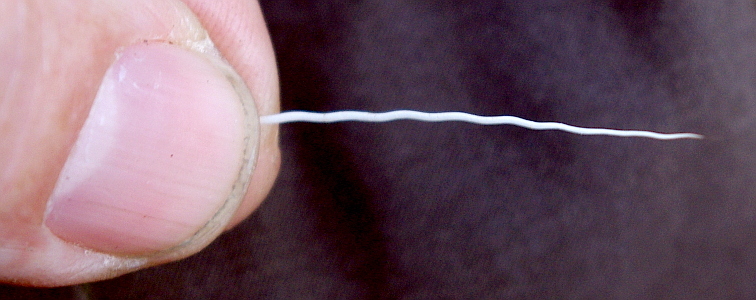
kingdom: Animalia
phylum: Chordata
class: Mammalia
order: Artiodactyla
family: Cervidae
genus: Alces
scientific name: Alces alces
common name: Moose
